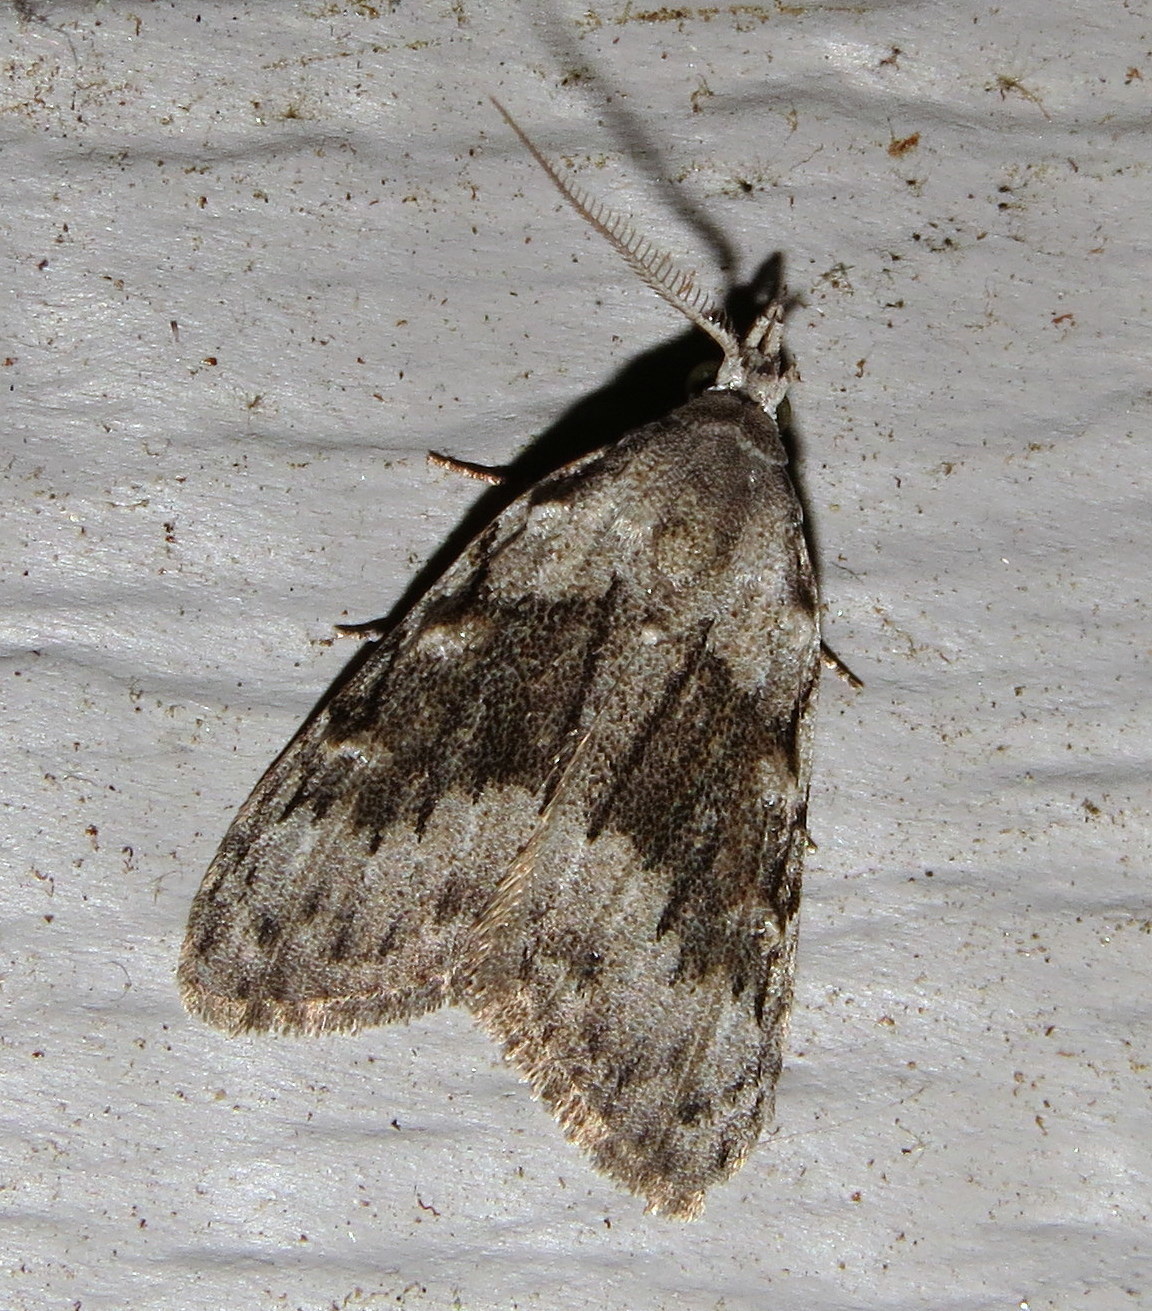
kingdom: Animalia
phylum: Arthropoda
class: Insecta
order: Lepidoptera
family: Nolidae
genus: Nola
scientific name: Nola clethrae
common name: Sweet pepperbush nola moth
